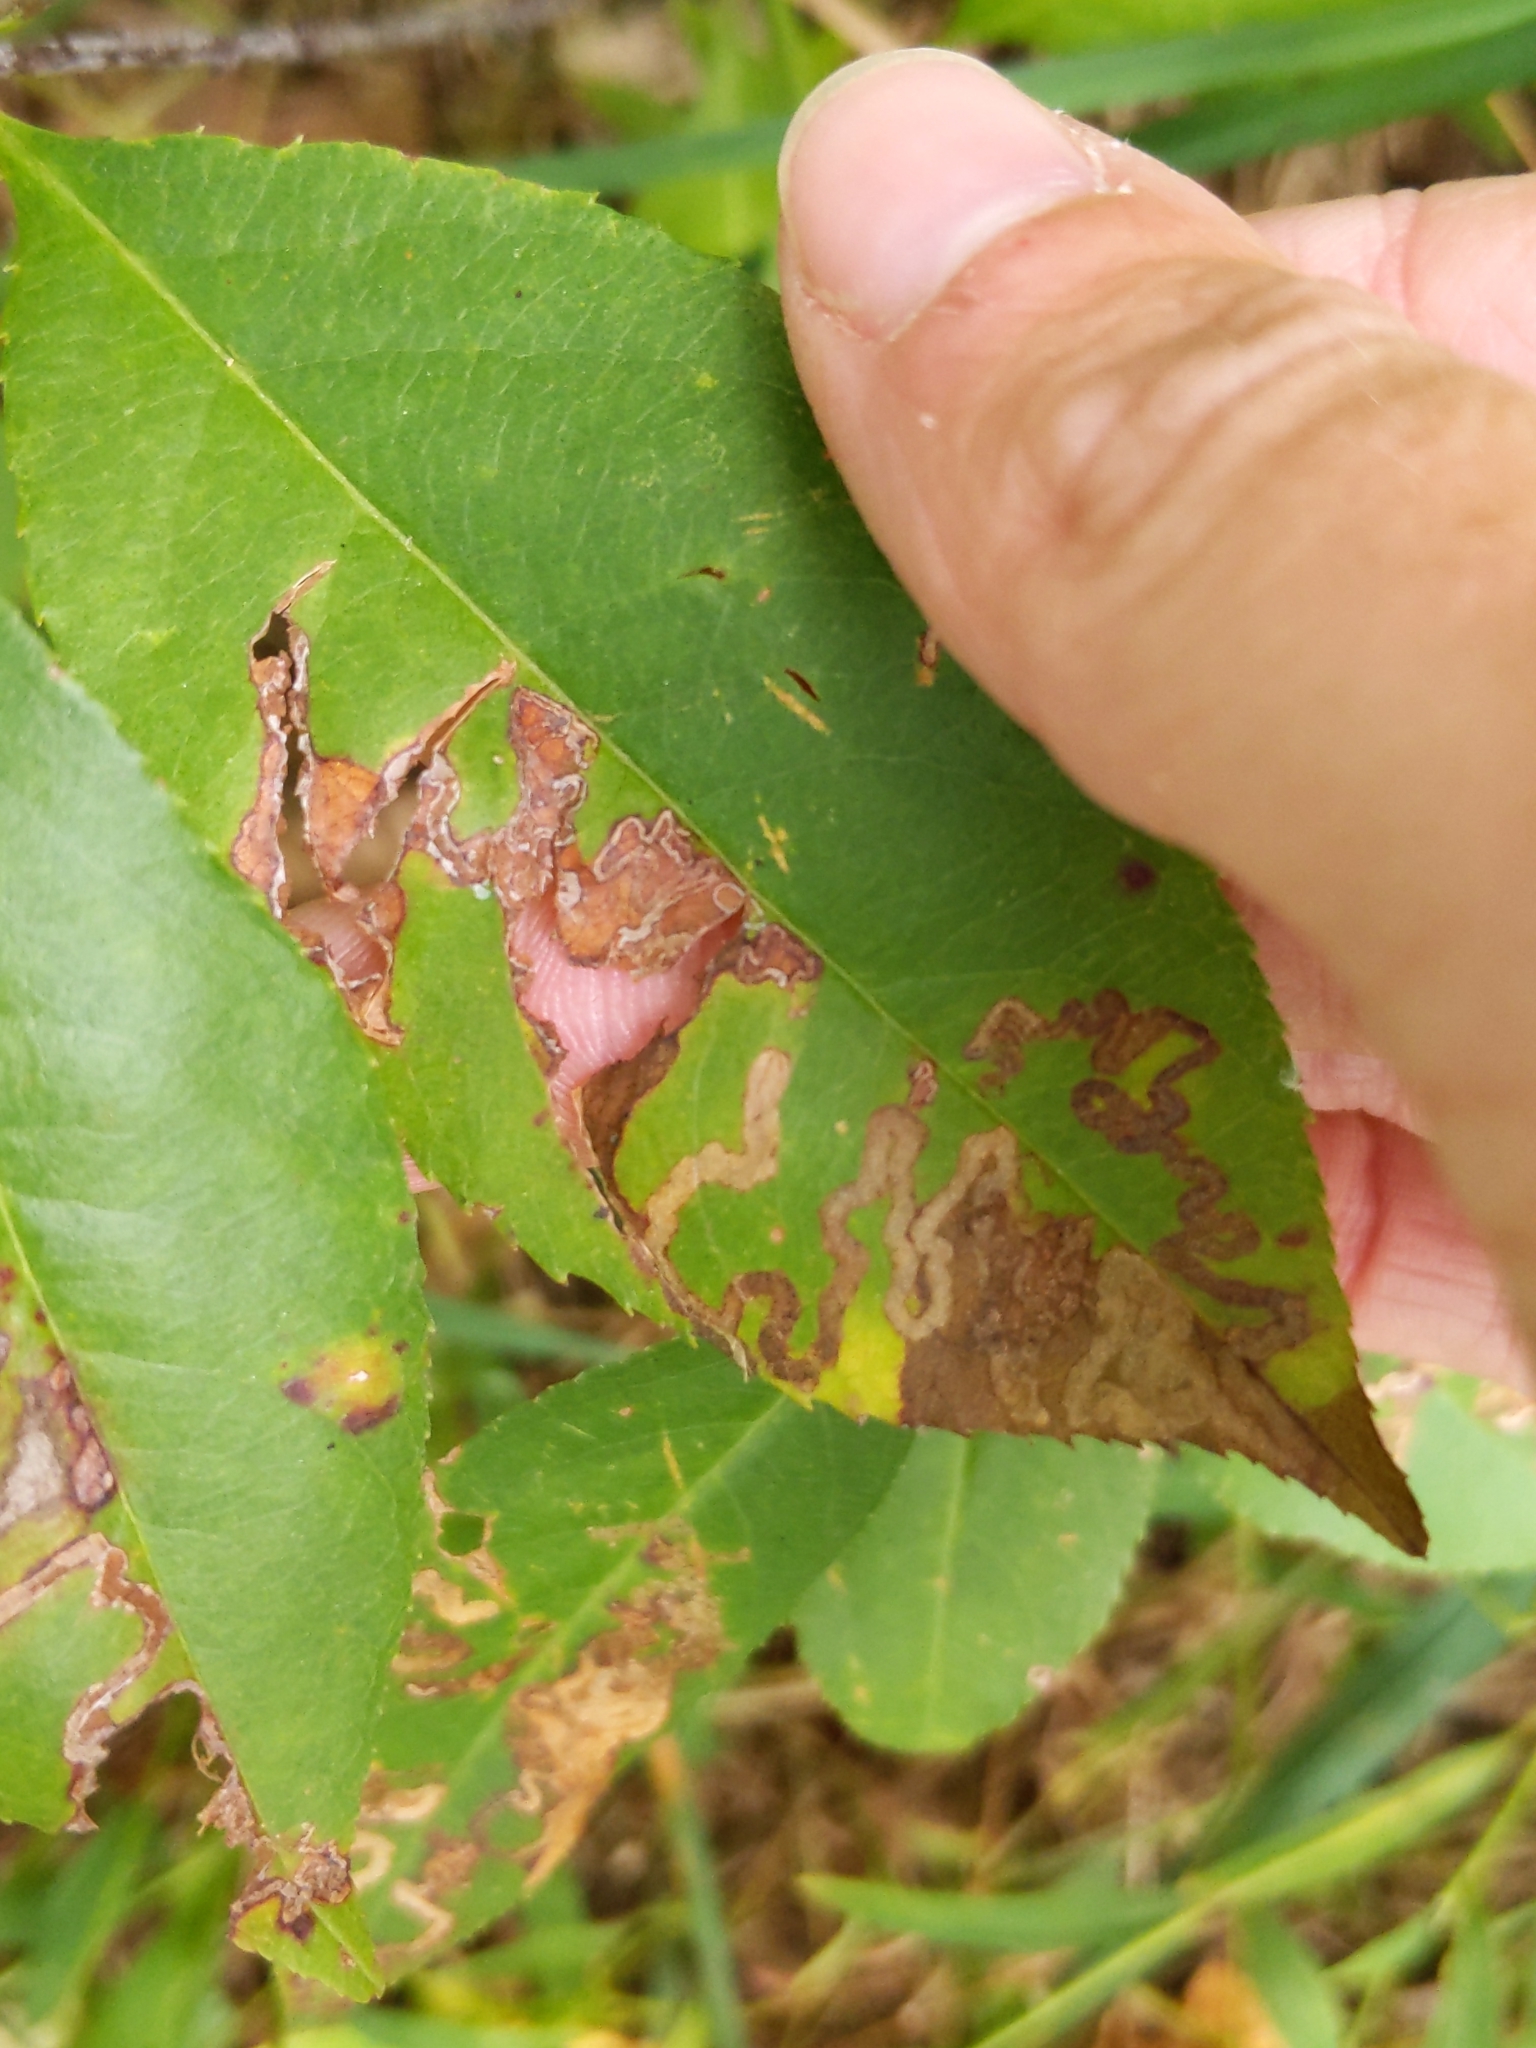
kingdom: Animalia
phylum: Arthropoda
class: Insecta
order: Lepidoptera
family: Nepticulidae
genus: Stigmella
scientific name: Stigmella prunifoliella
